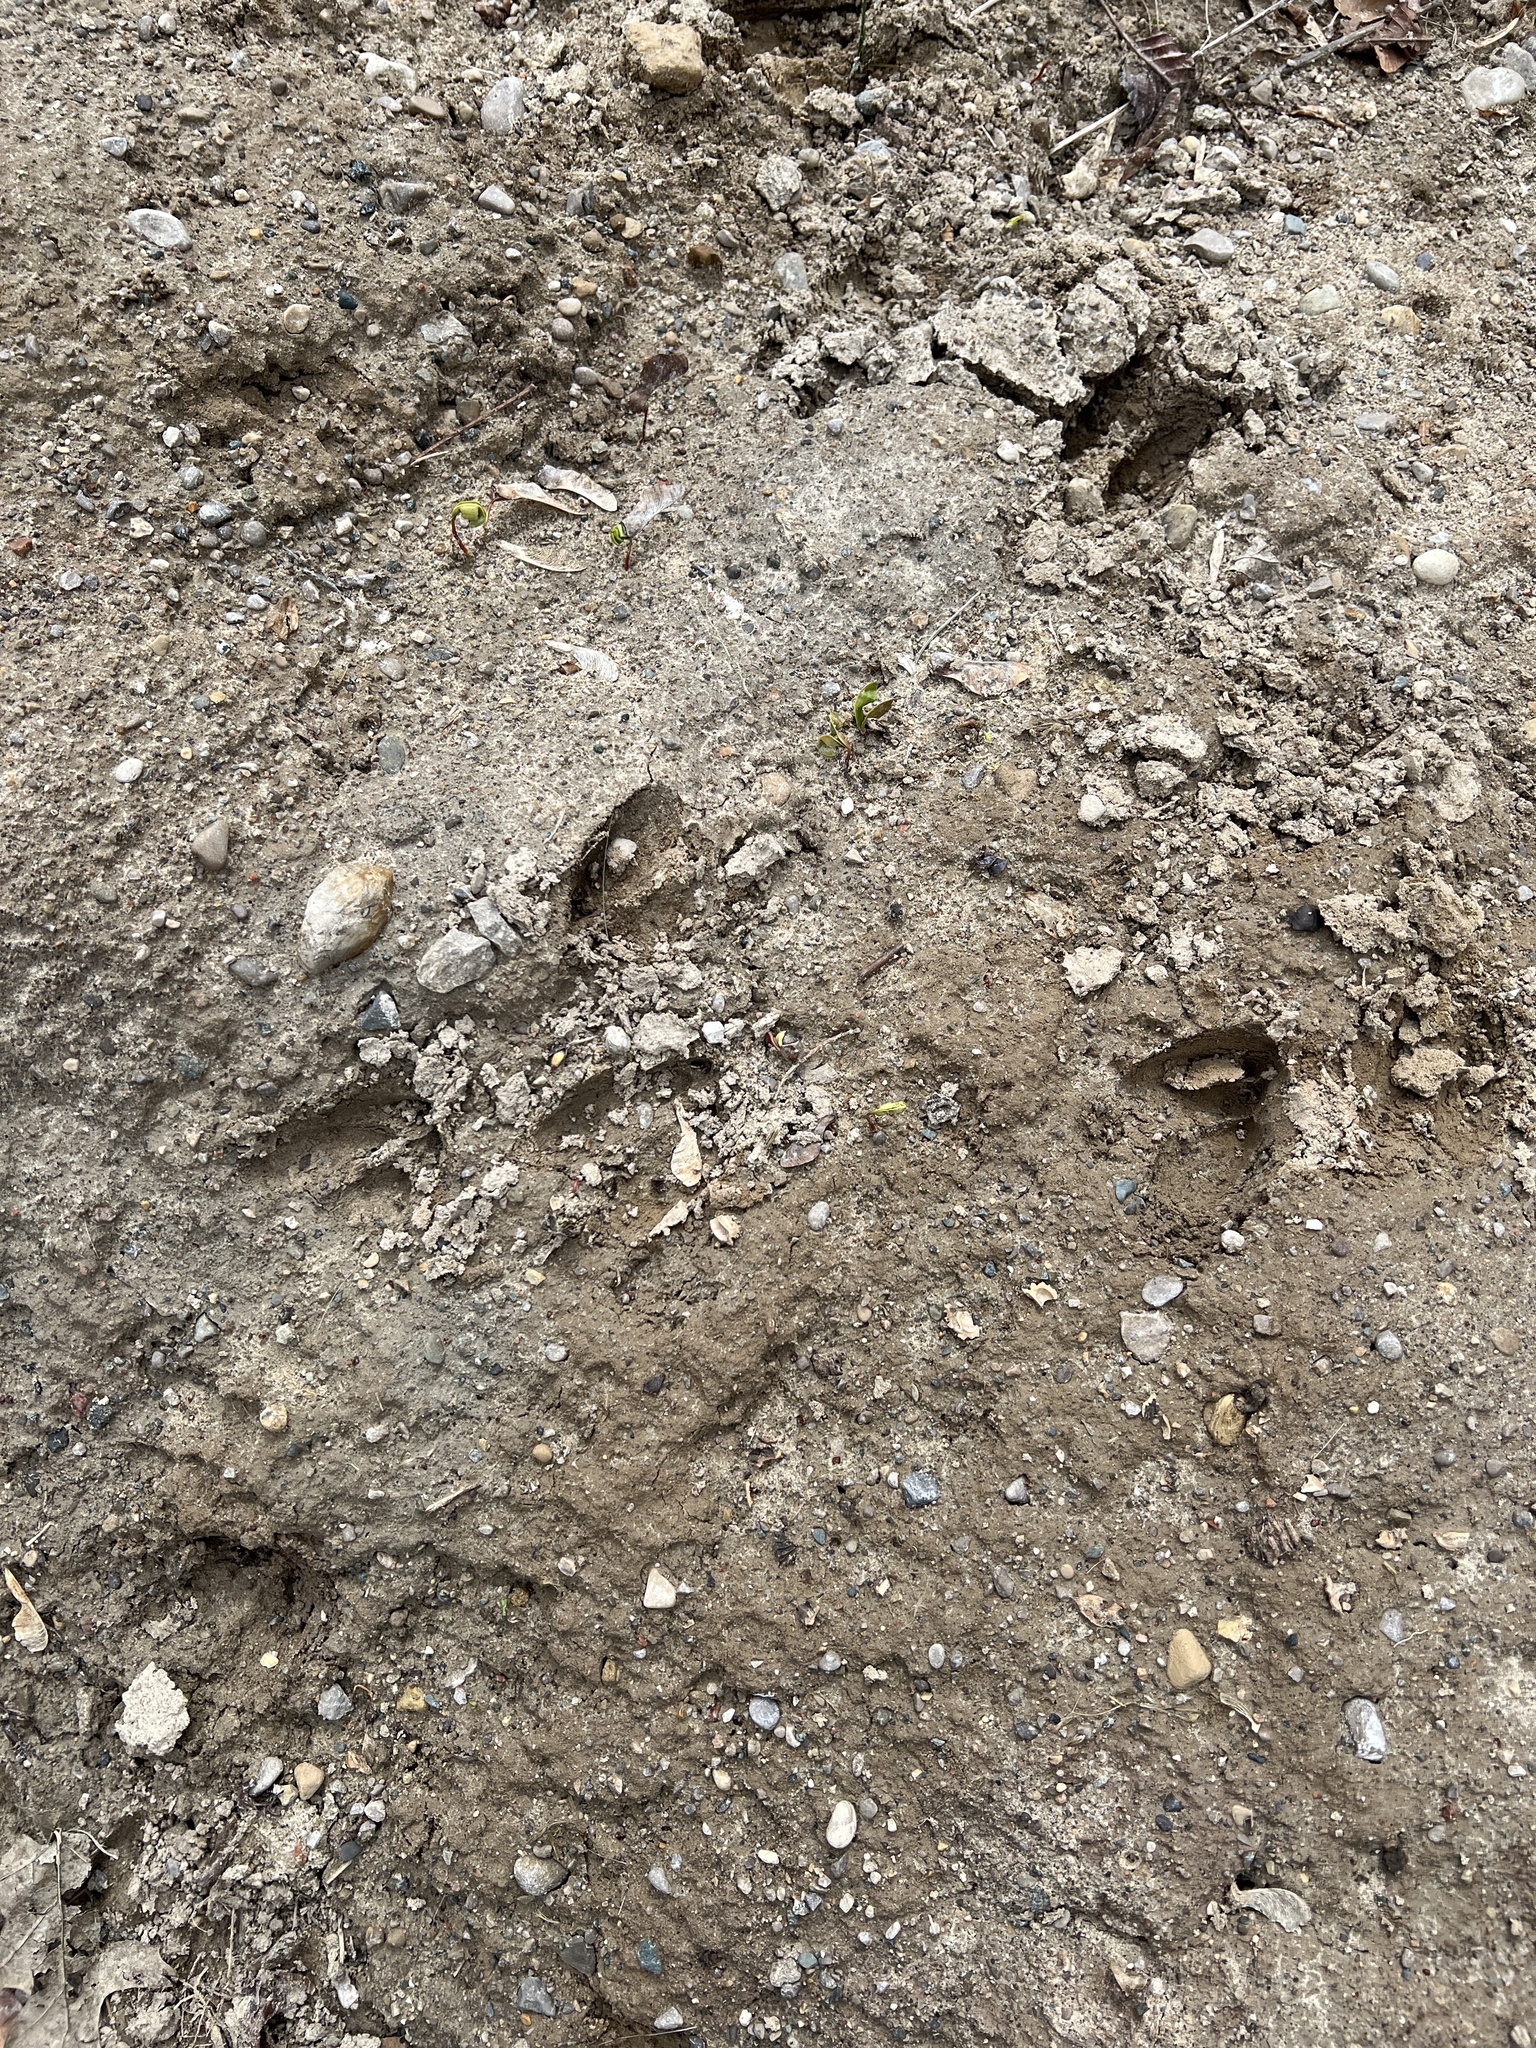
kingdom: Animalia
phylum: Chordata
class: Mammalia
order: Artiodactyla
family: Cervidae
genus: Odocoileus
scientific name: Odocoileus virginianus
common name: White-tailed deer
